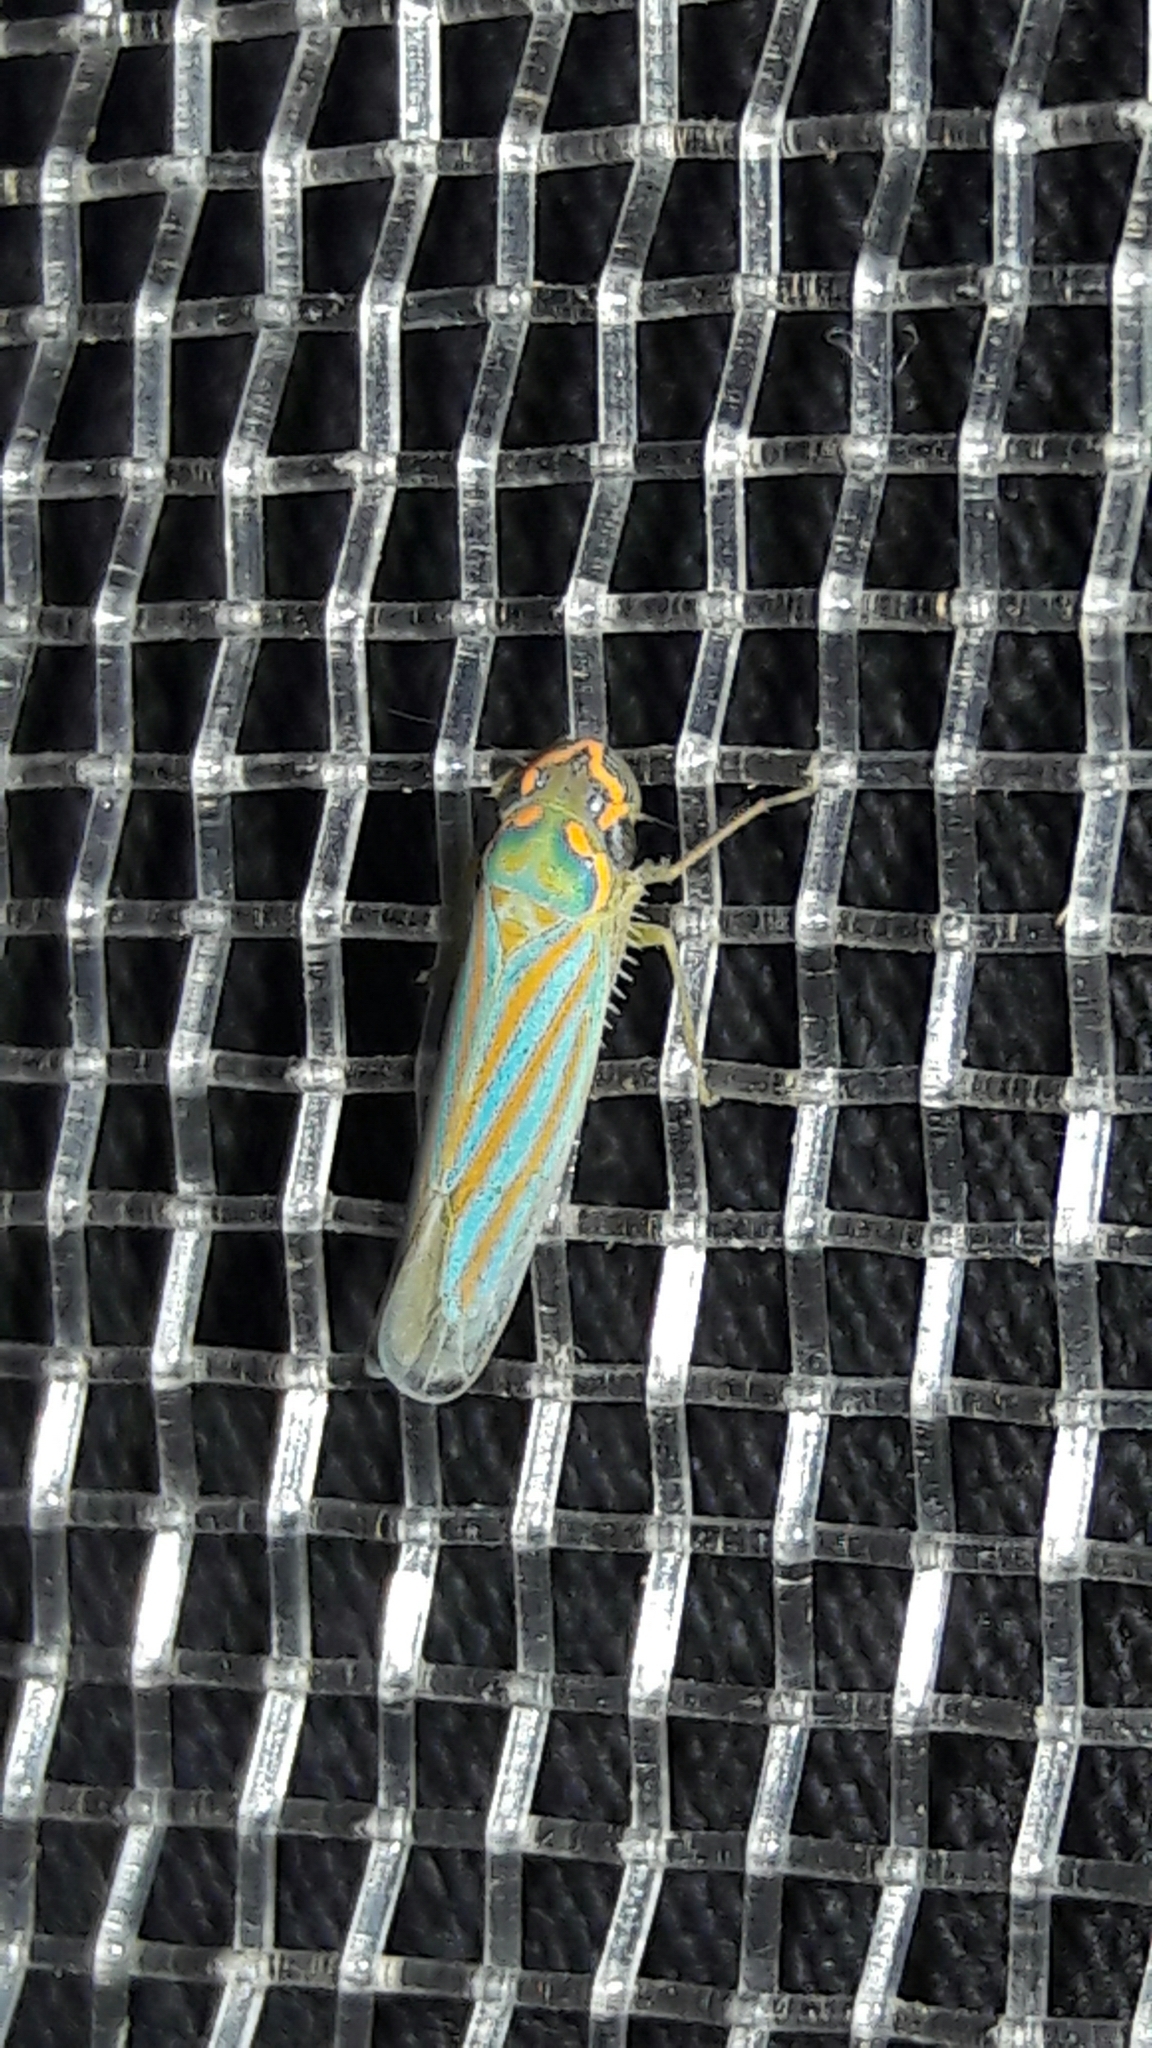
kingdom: Animalia
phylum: Arthropoda
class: Insecta
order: Hemiptera
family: Cicadellidae
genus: Ferrariana
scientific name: Ferrariana trivittata
